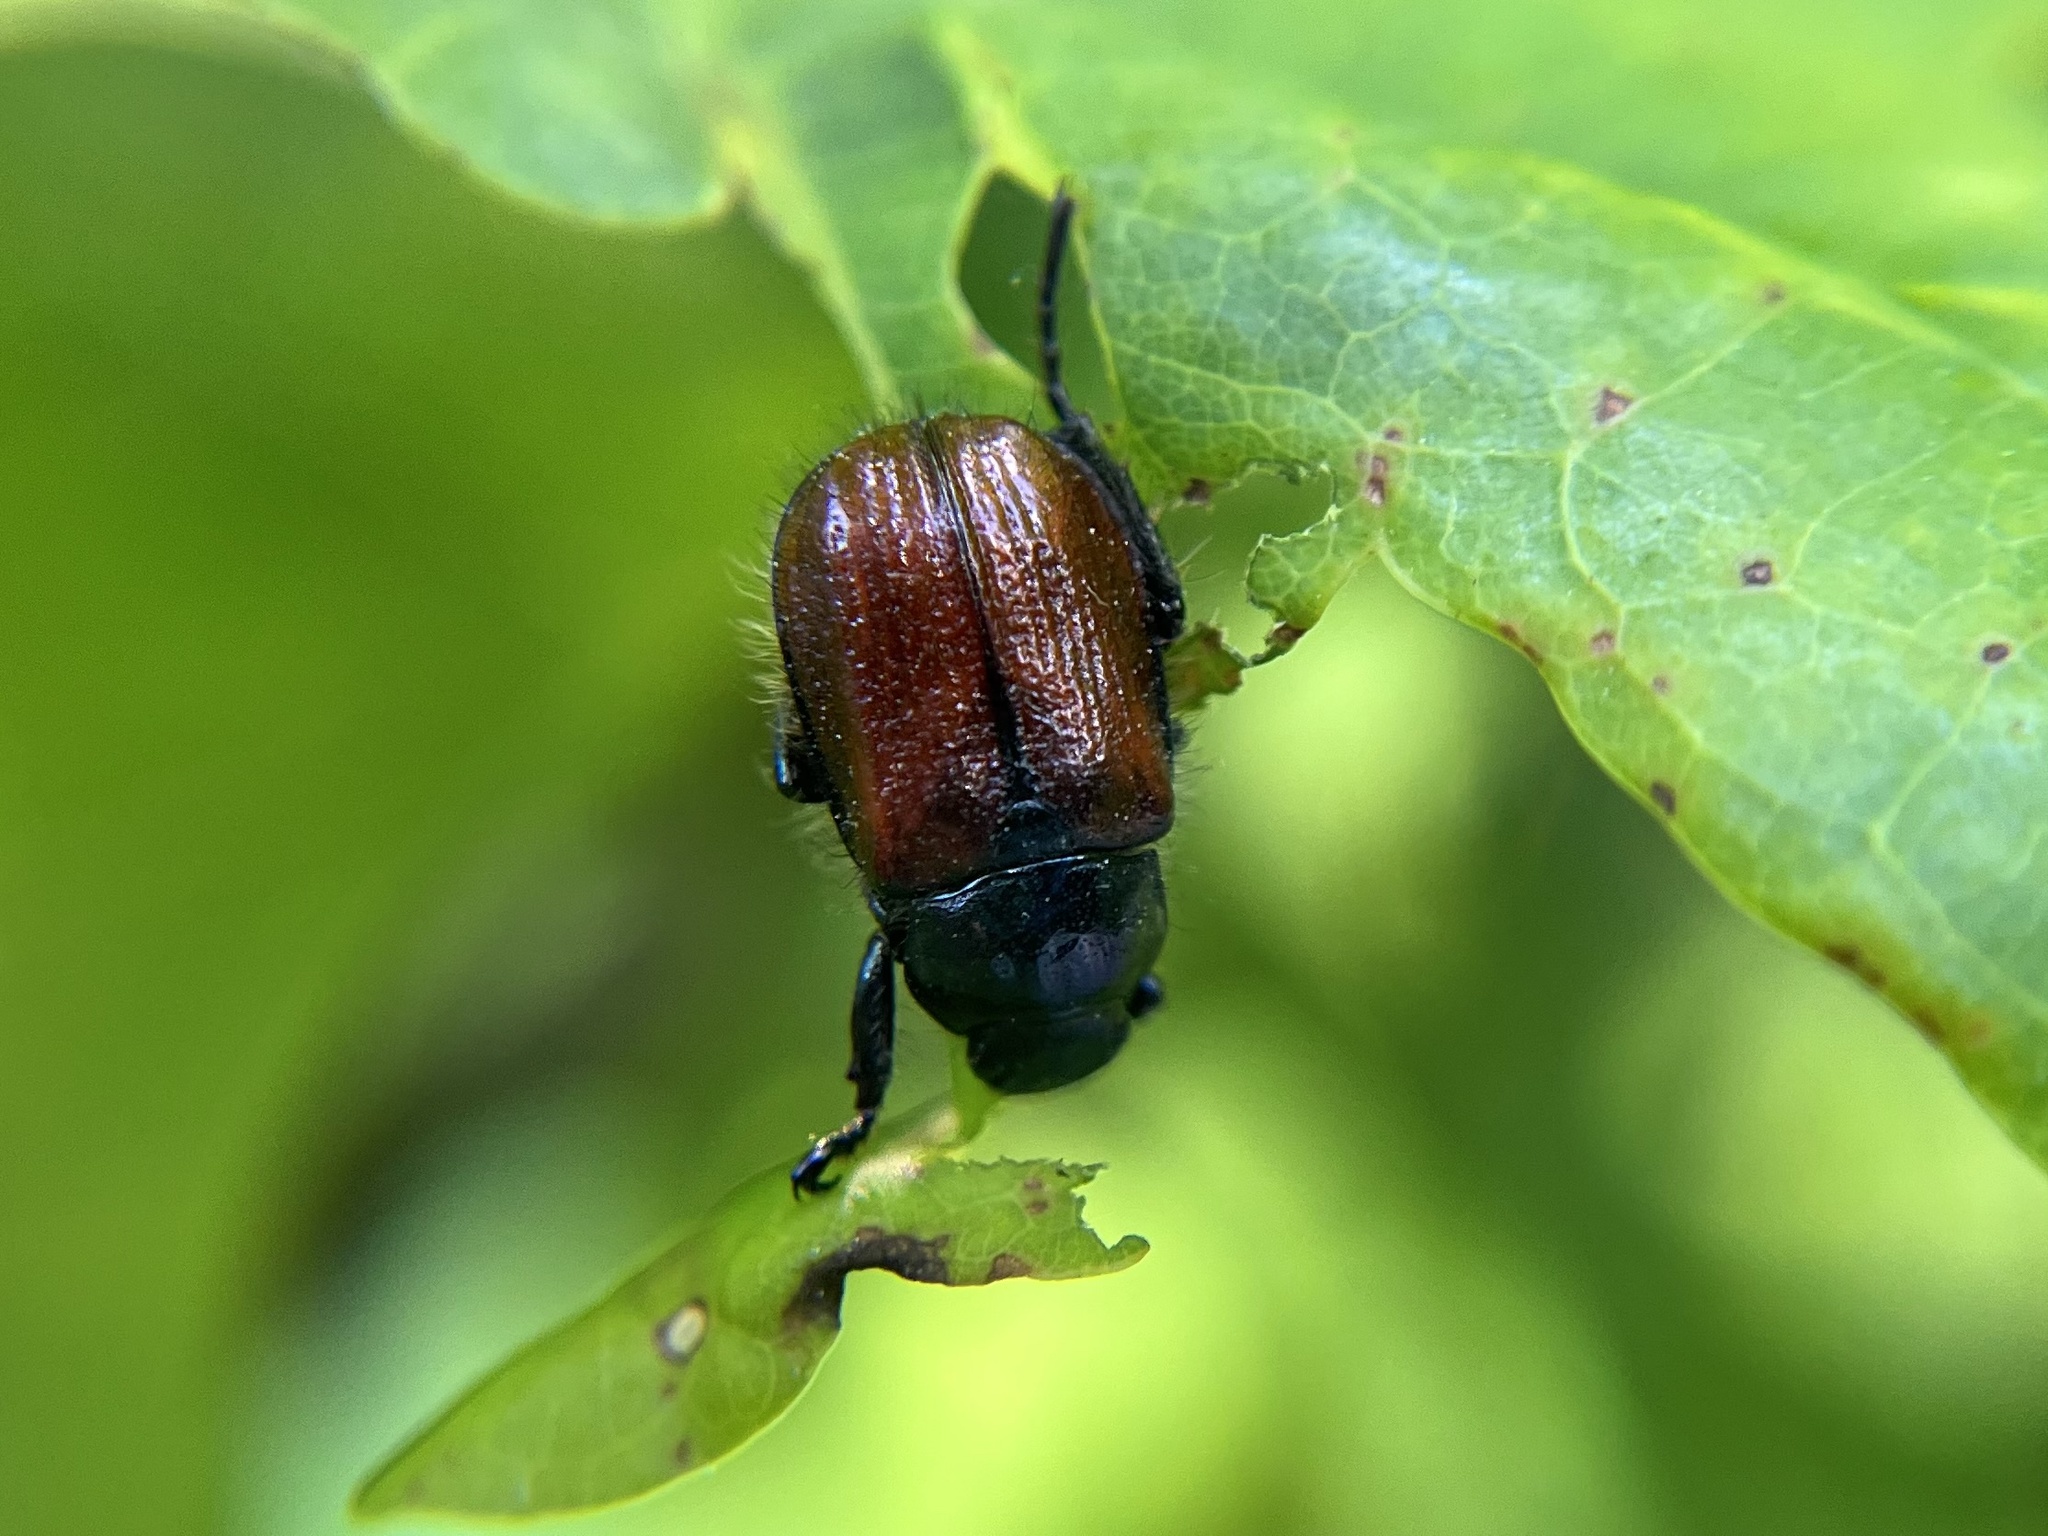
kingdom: Animalia
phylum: Arthropoda
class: Insecta
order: Coleoptera
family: Scarabaeidae
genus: Phyllopertha
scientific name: Phyllopertha horticola
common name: Garden chafer
